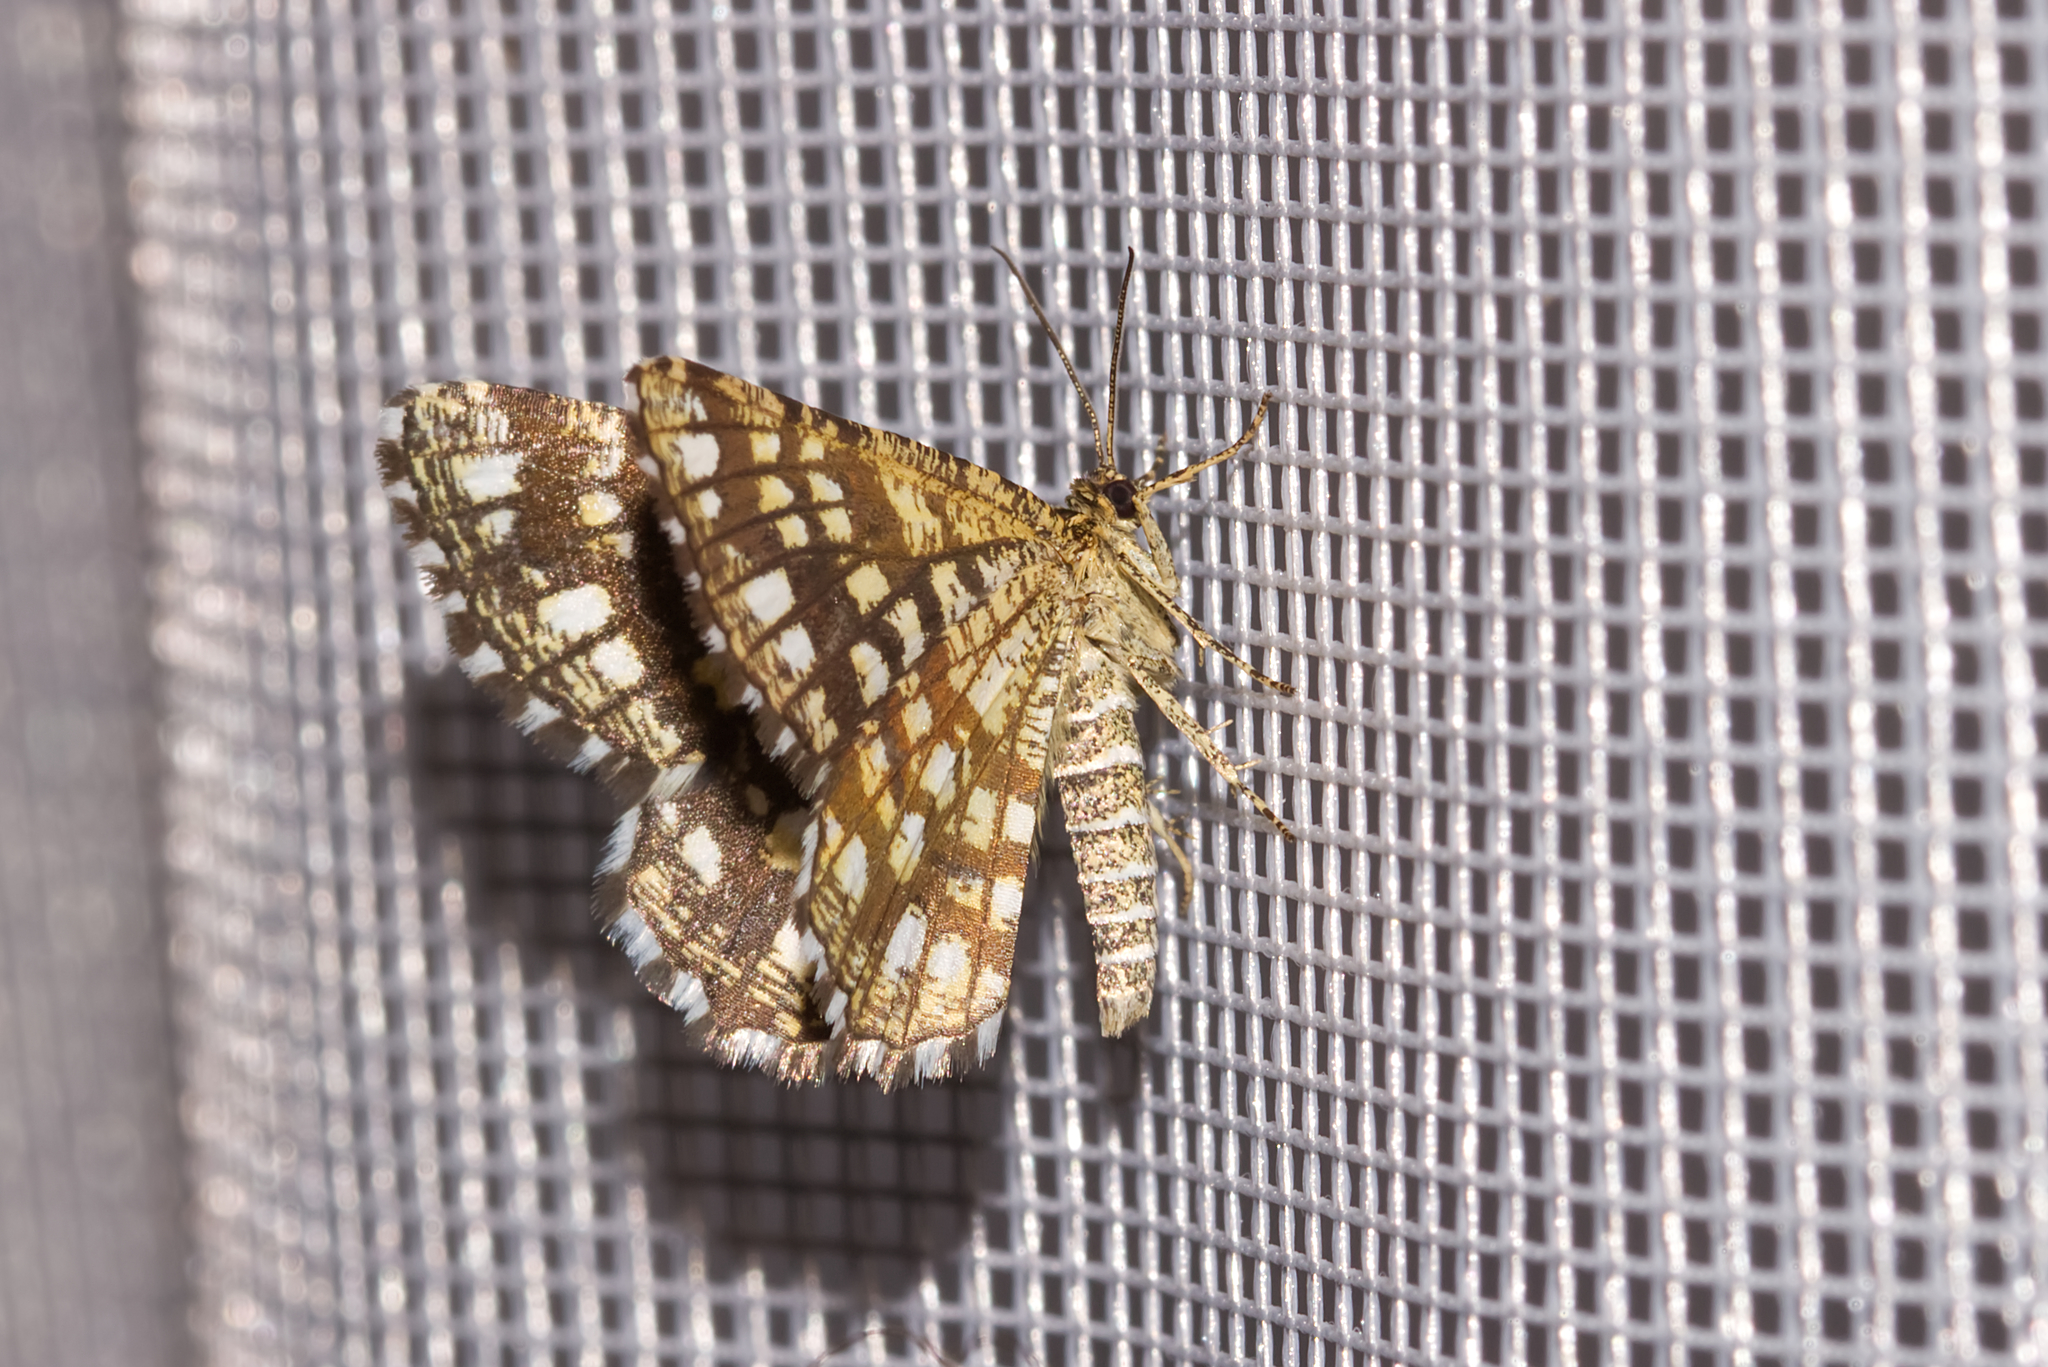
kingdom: Animalia
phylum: Arthropoda
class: Insecta
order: Lepidoptera
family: Geometridae
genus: Chiasmia
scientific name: Chiasmia clathrata
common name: Latticed heath
